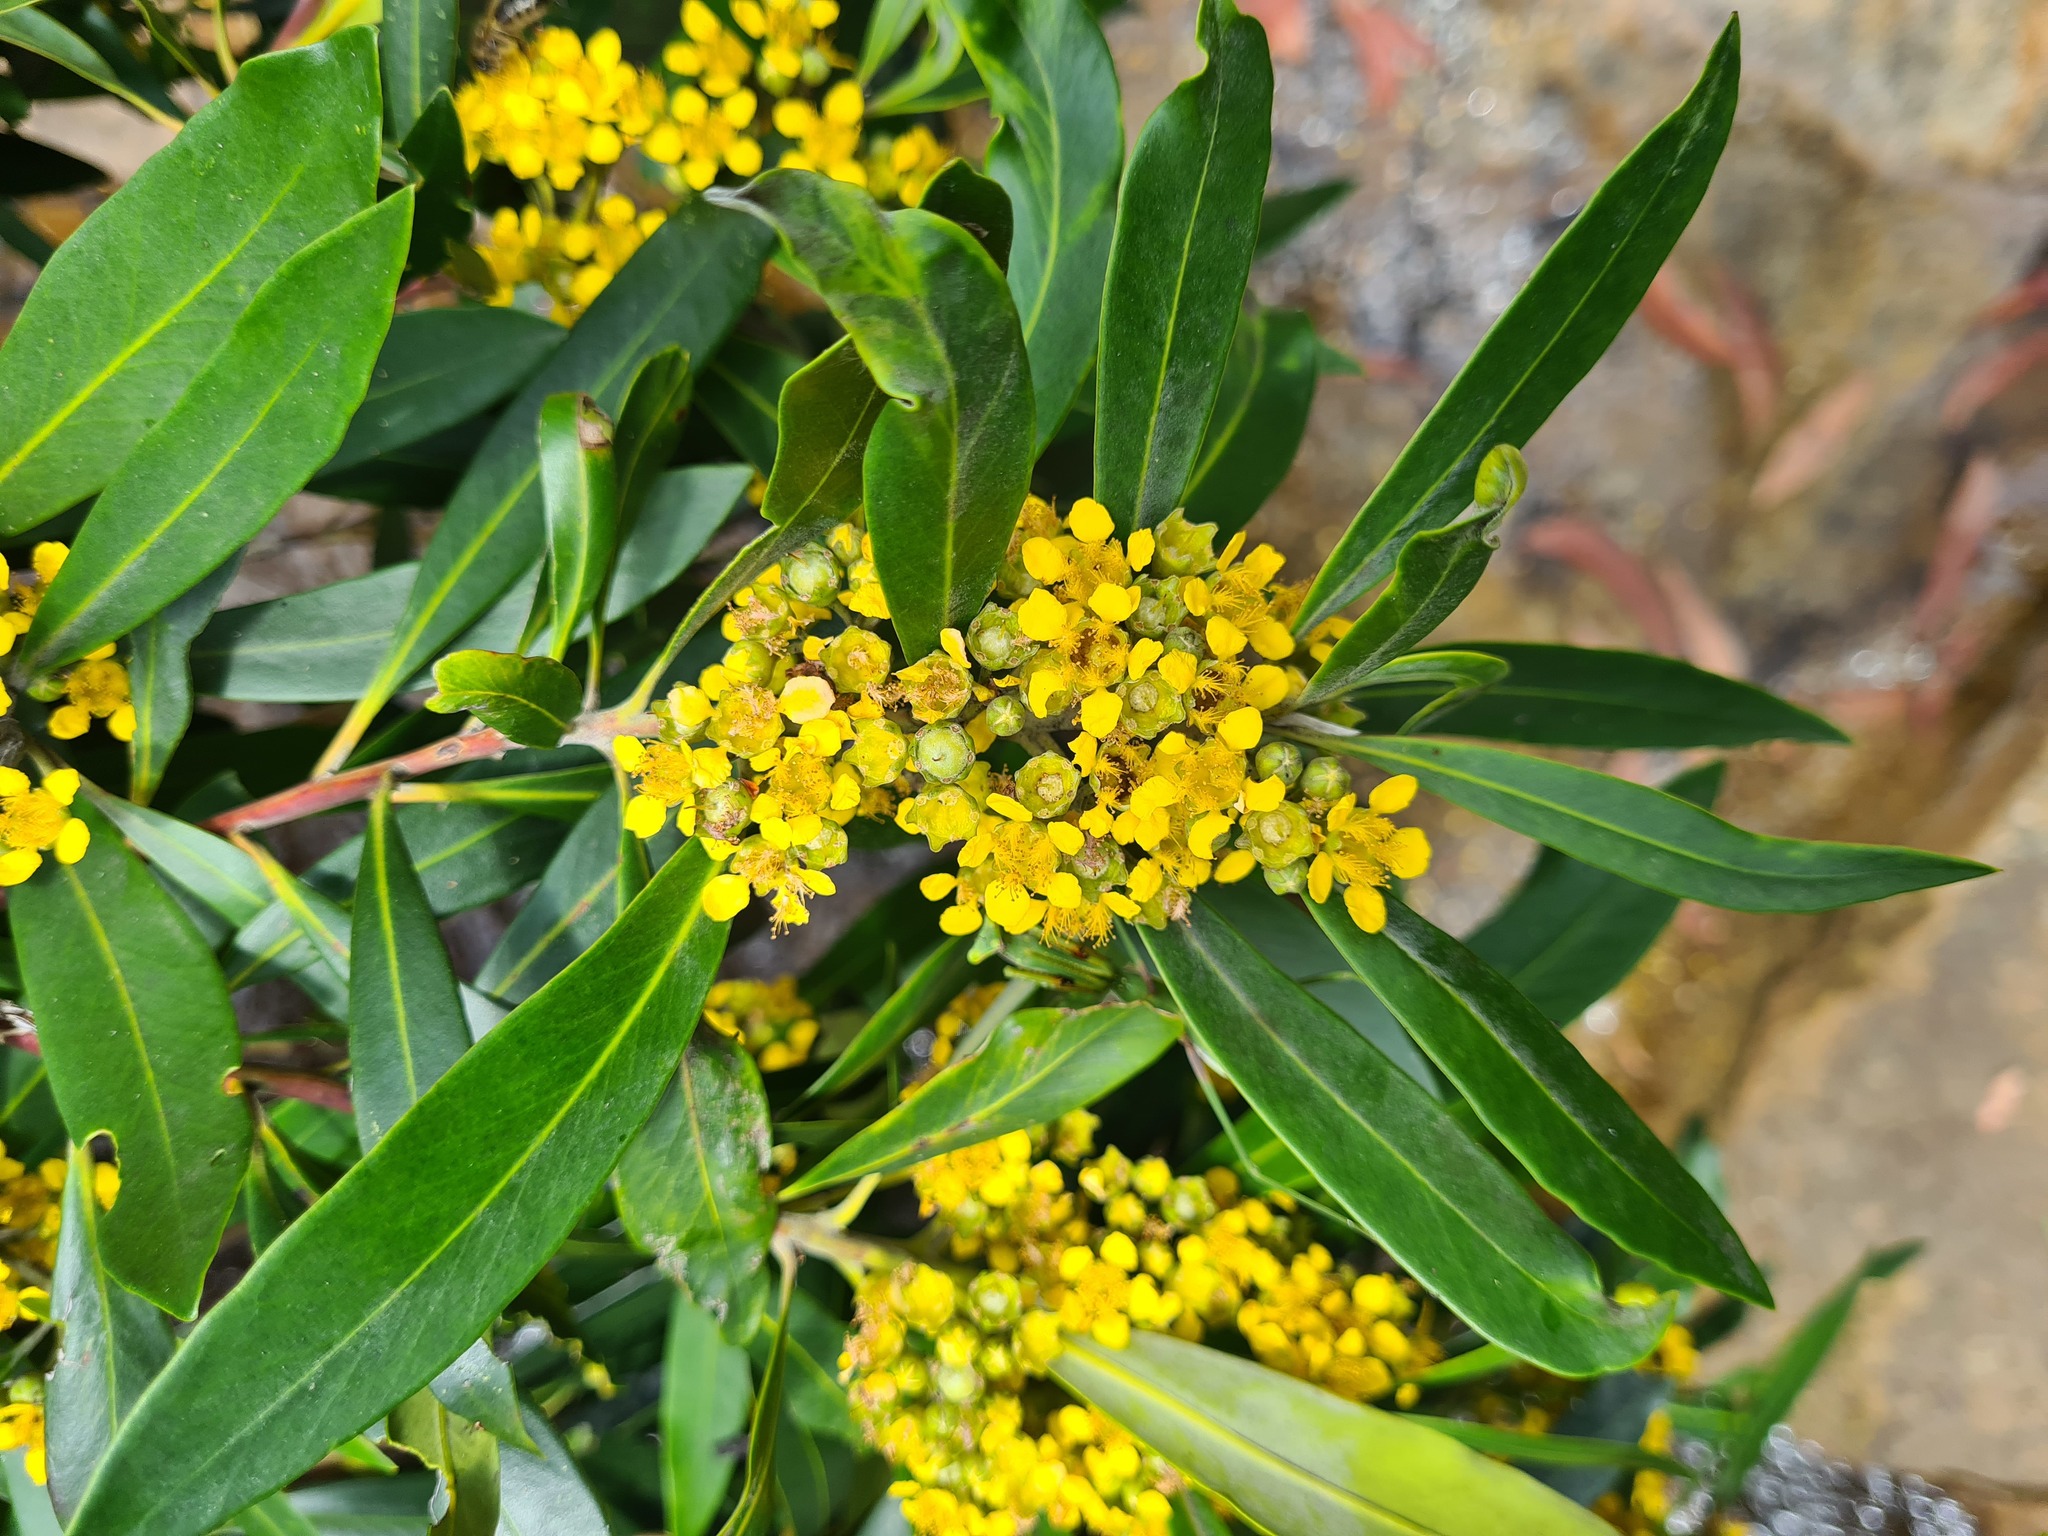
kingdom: Plantae
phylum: Tracheophyta
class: Magnoliopsida
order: Myrtales
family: Myrtaceae
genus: Tristaniopsis
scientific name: Tristaniopsis laurina
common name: Water-gum
